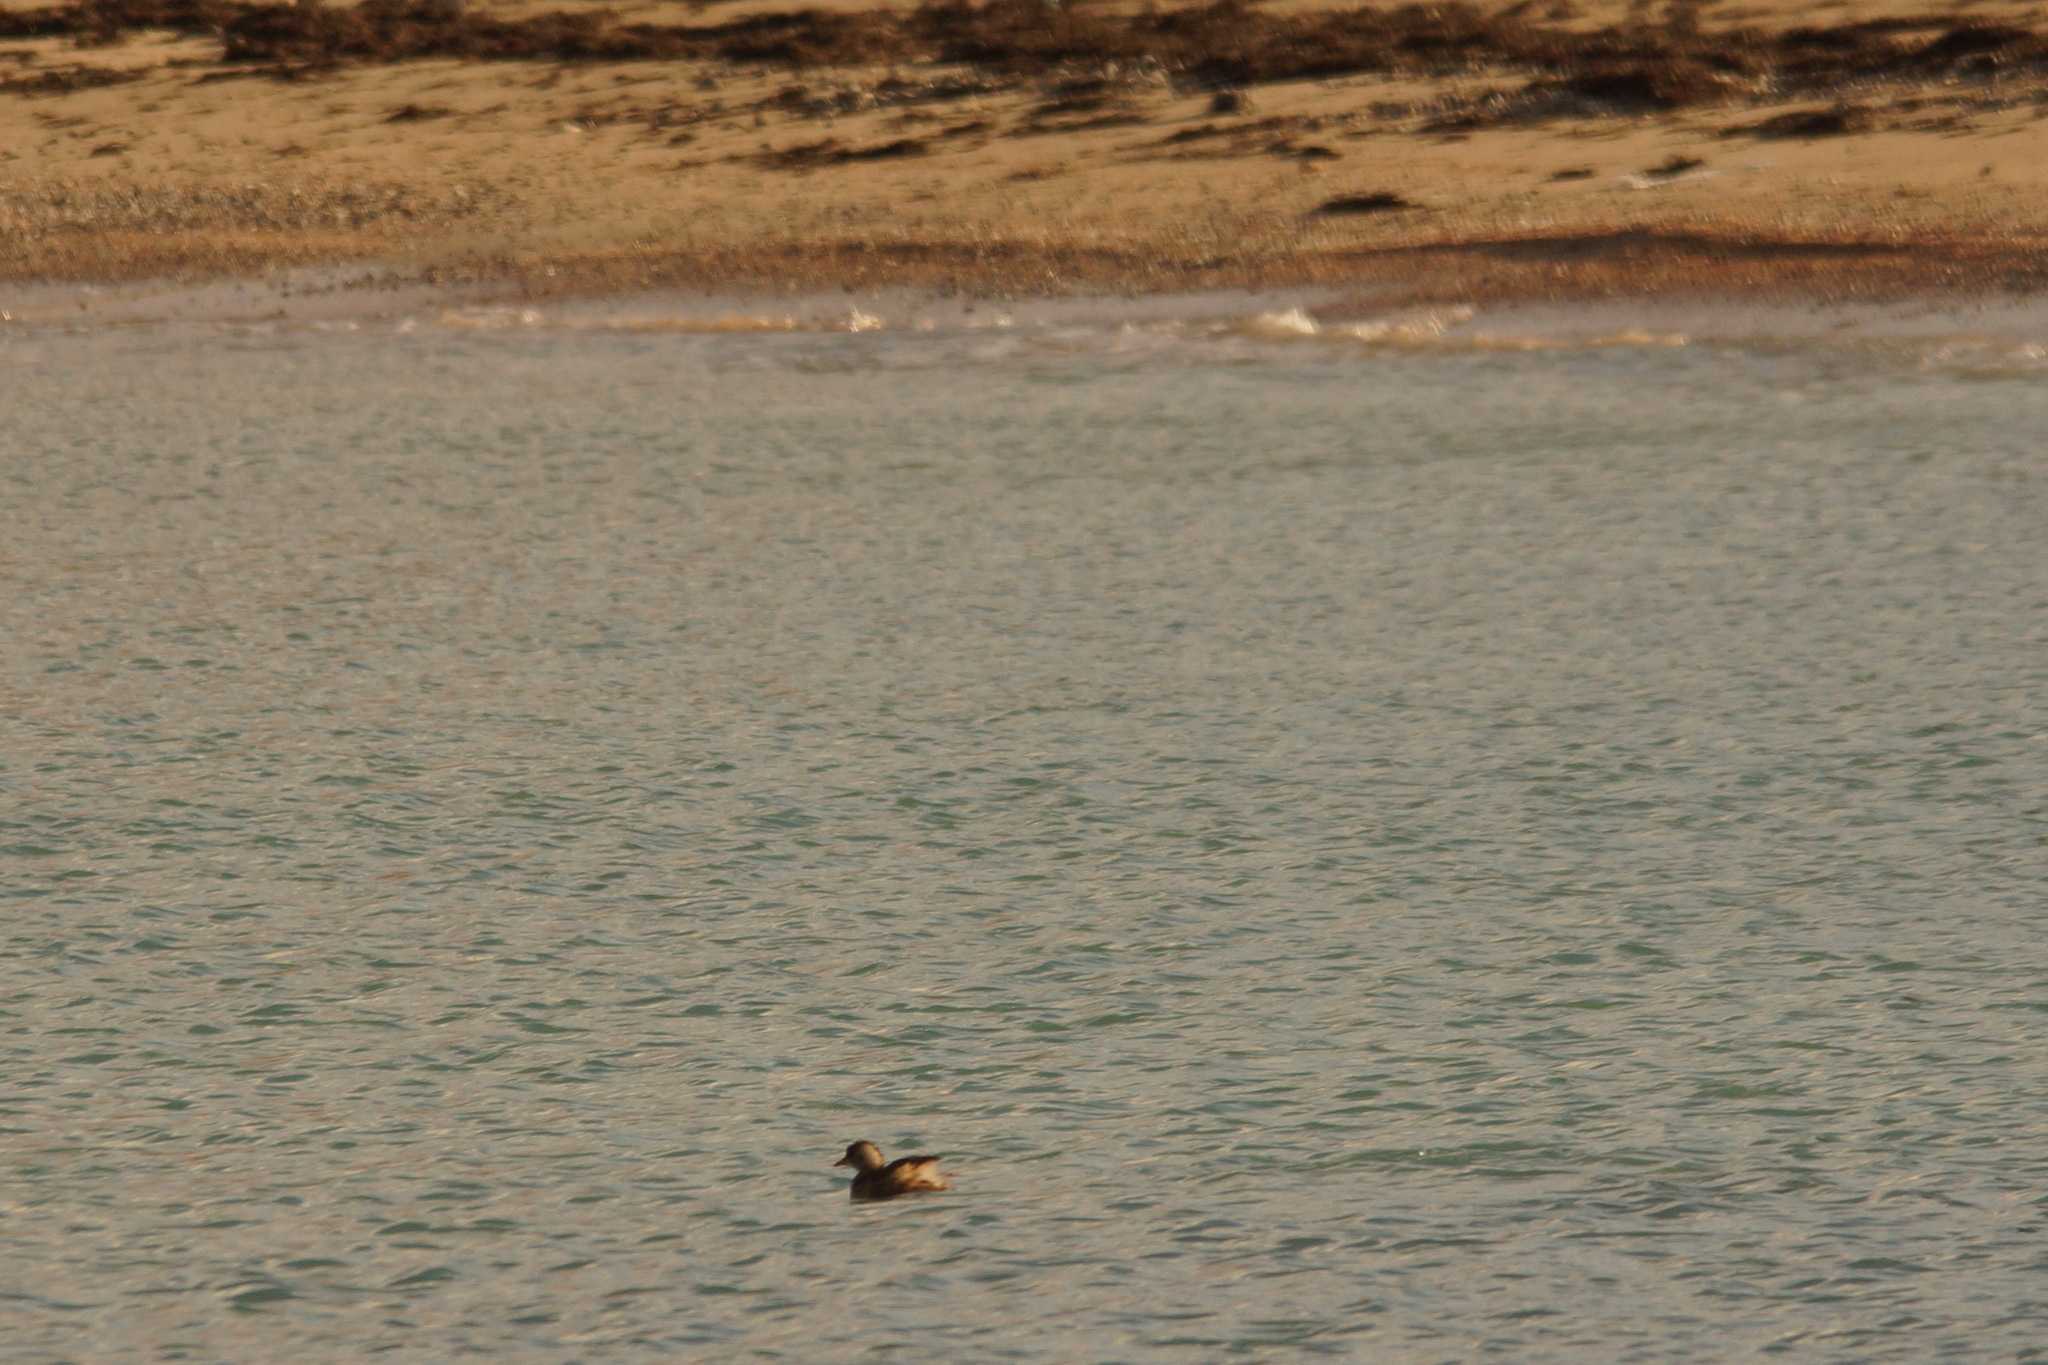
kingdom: Animalia
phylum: Chordata
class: Aves
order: Podicipediformes
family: Podicipedidae
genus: Tachybaptus
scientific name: Tachybaptus ruficollis
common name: Little grebe
